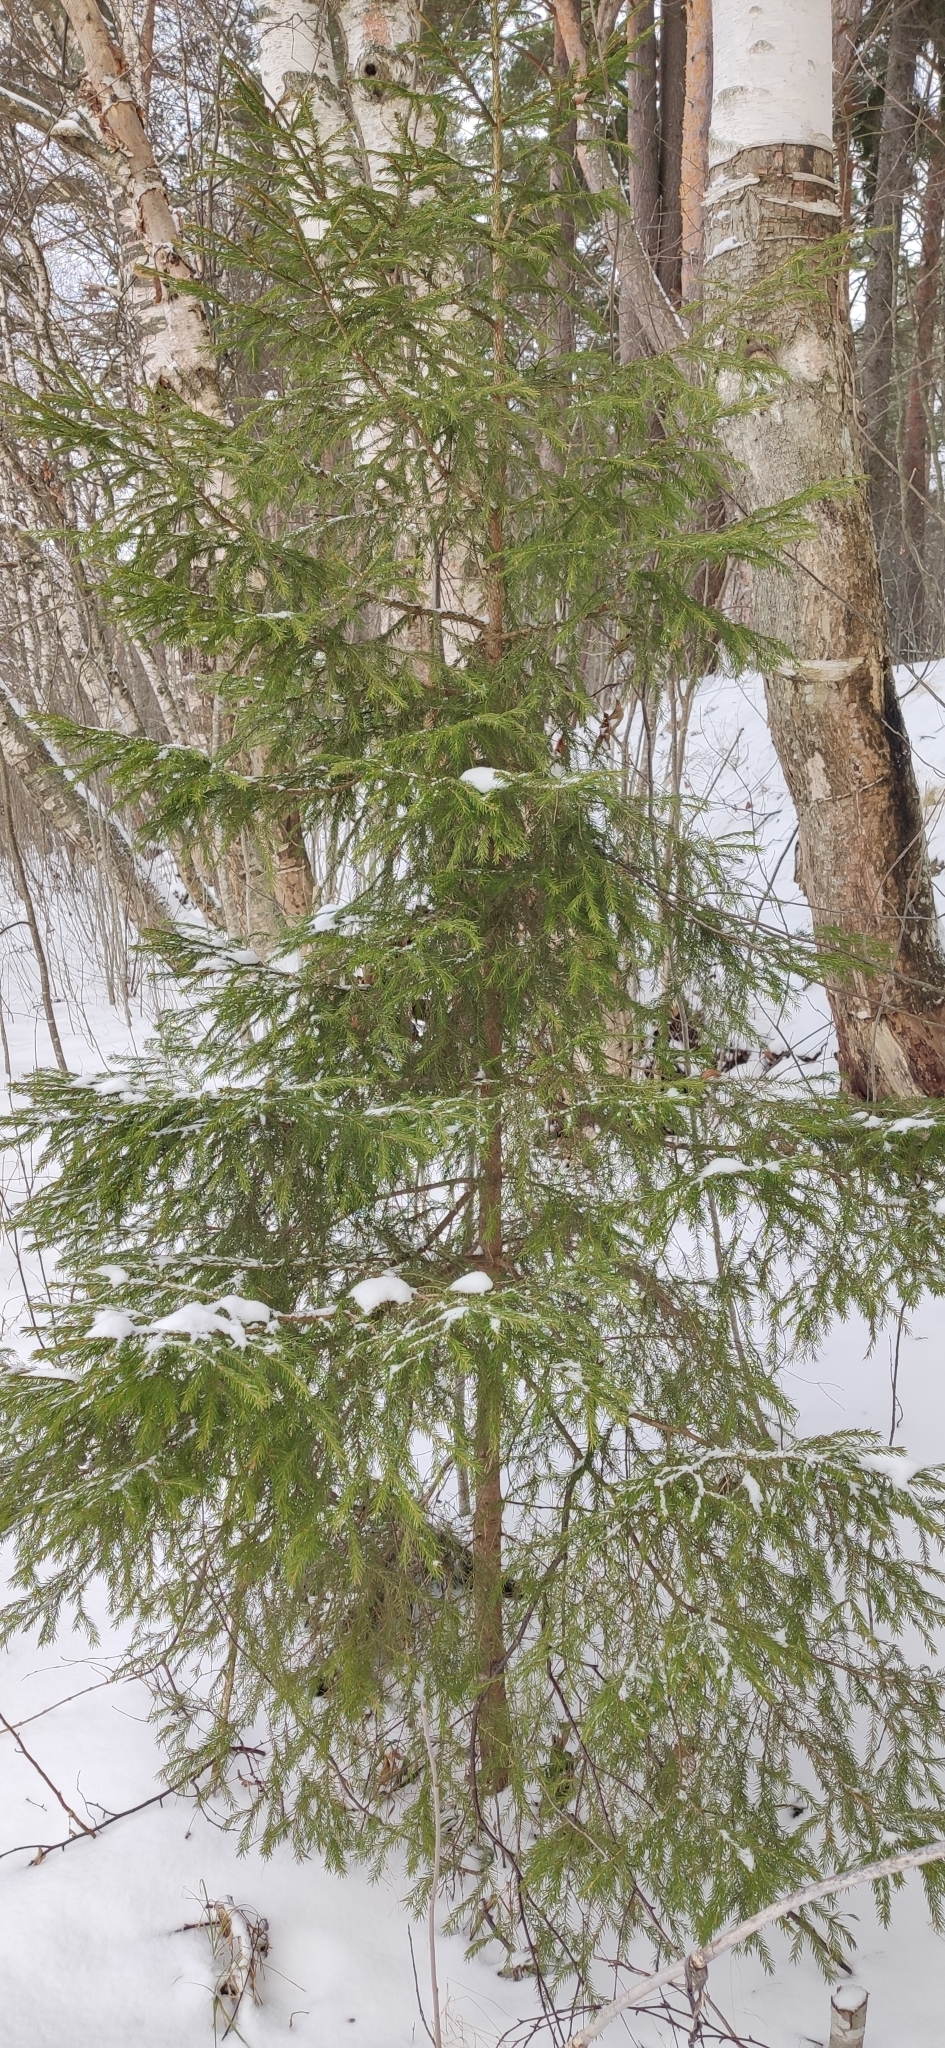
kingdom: Plantae
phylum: Tracheophyta
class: Pinopsida
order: Pinales
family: Pinaceae
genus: Picea
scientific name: Picea abies
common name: Norway spruce
